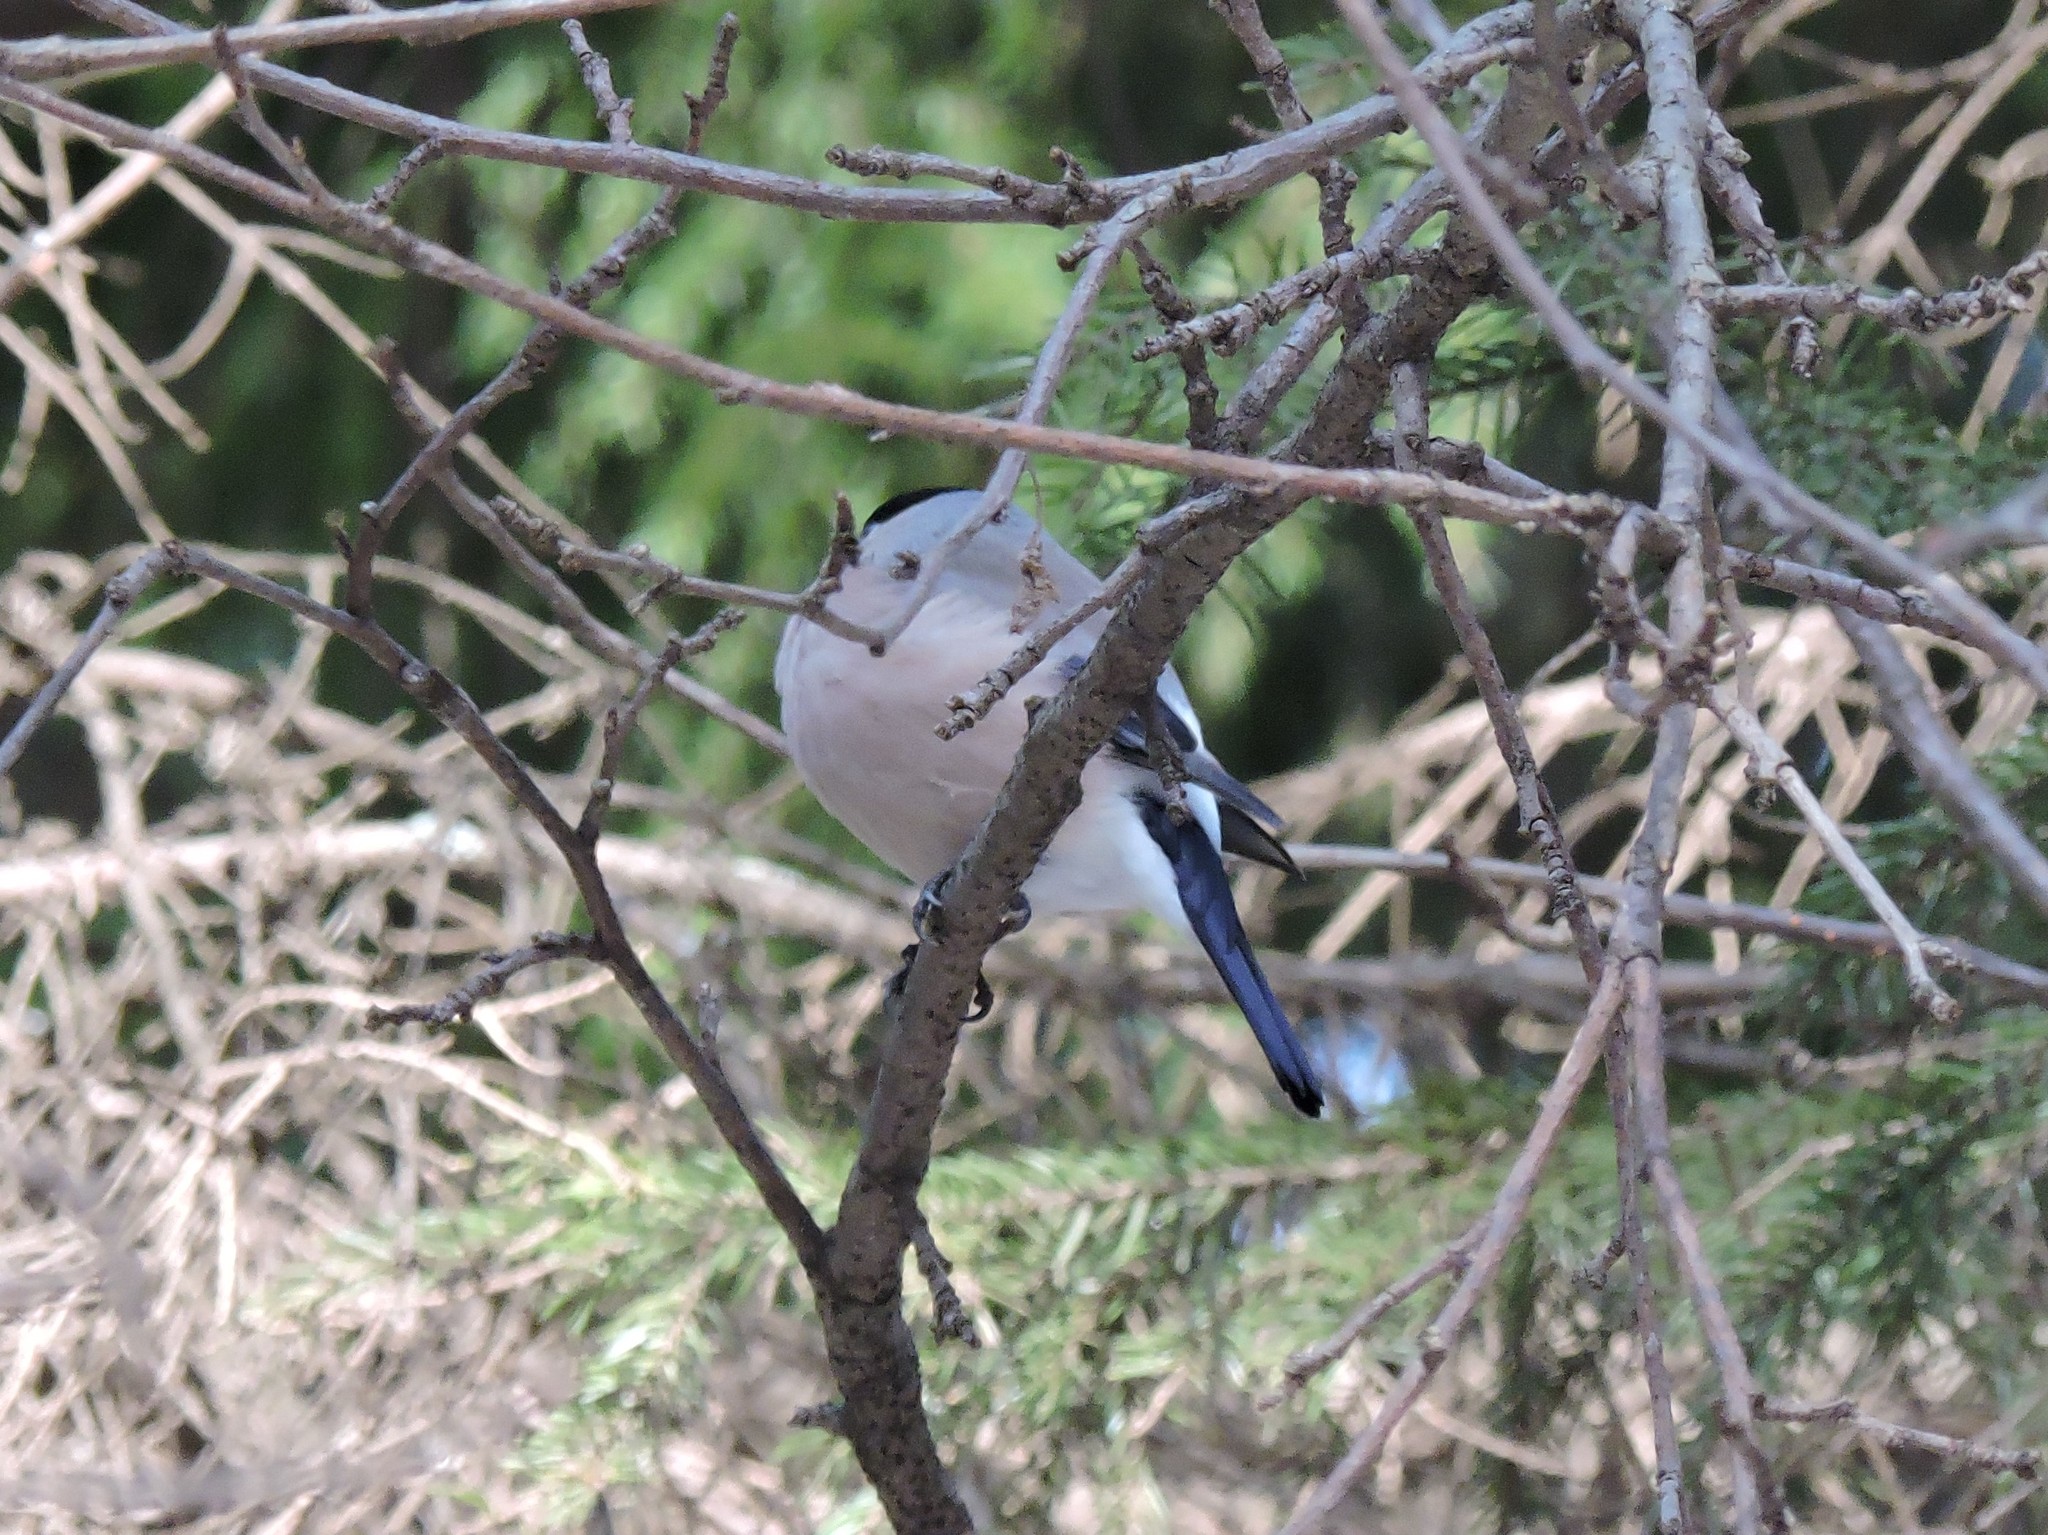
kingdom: Animalia
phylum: Chordata
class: Aves
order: Passeriformes
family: Fringillidae
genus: Pyrrhula
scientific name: Pyrrhula pyrrhula
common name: Eurasian bullfinch
